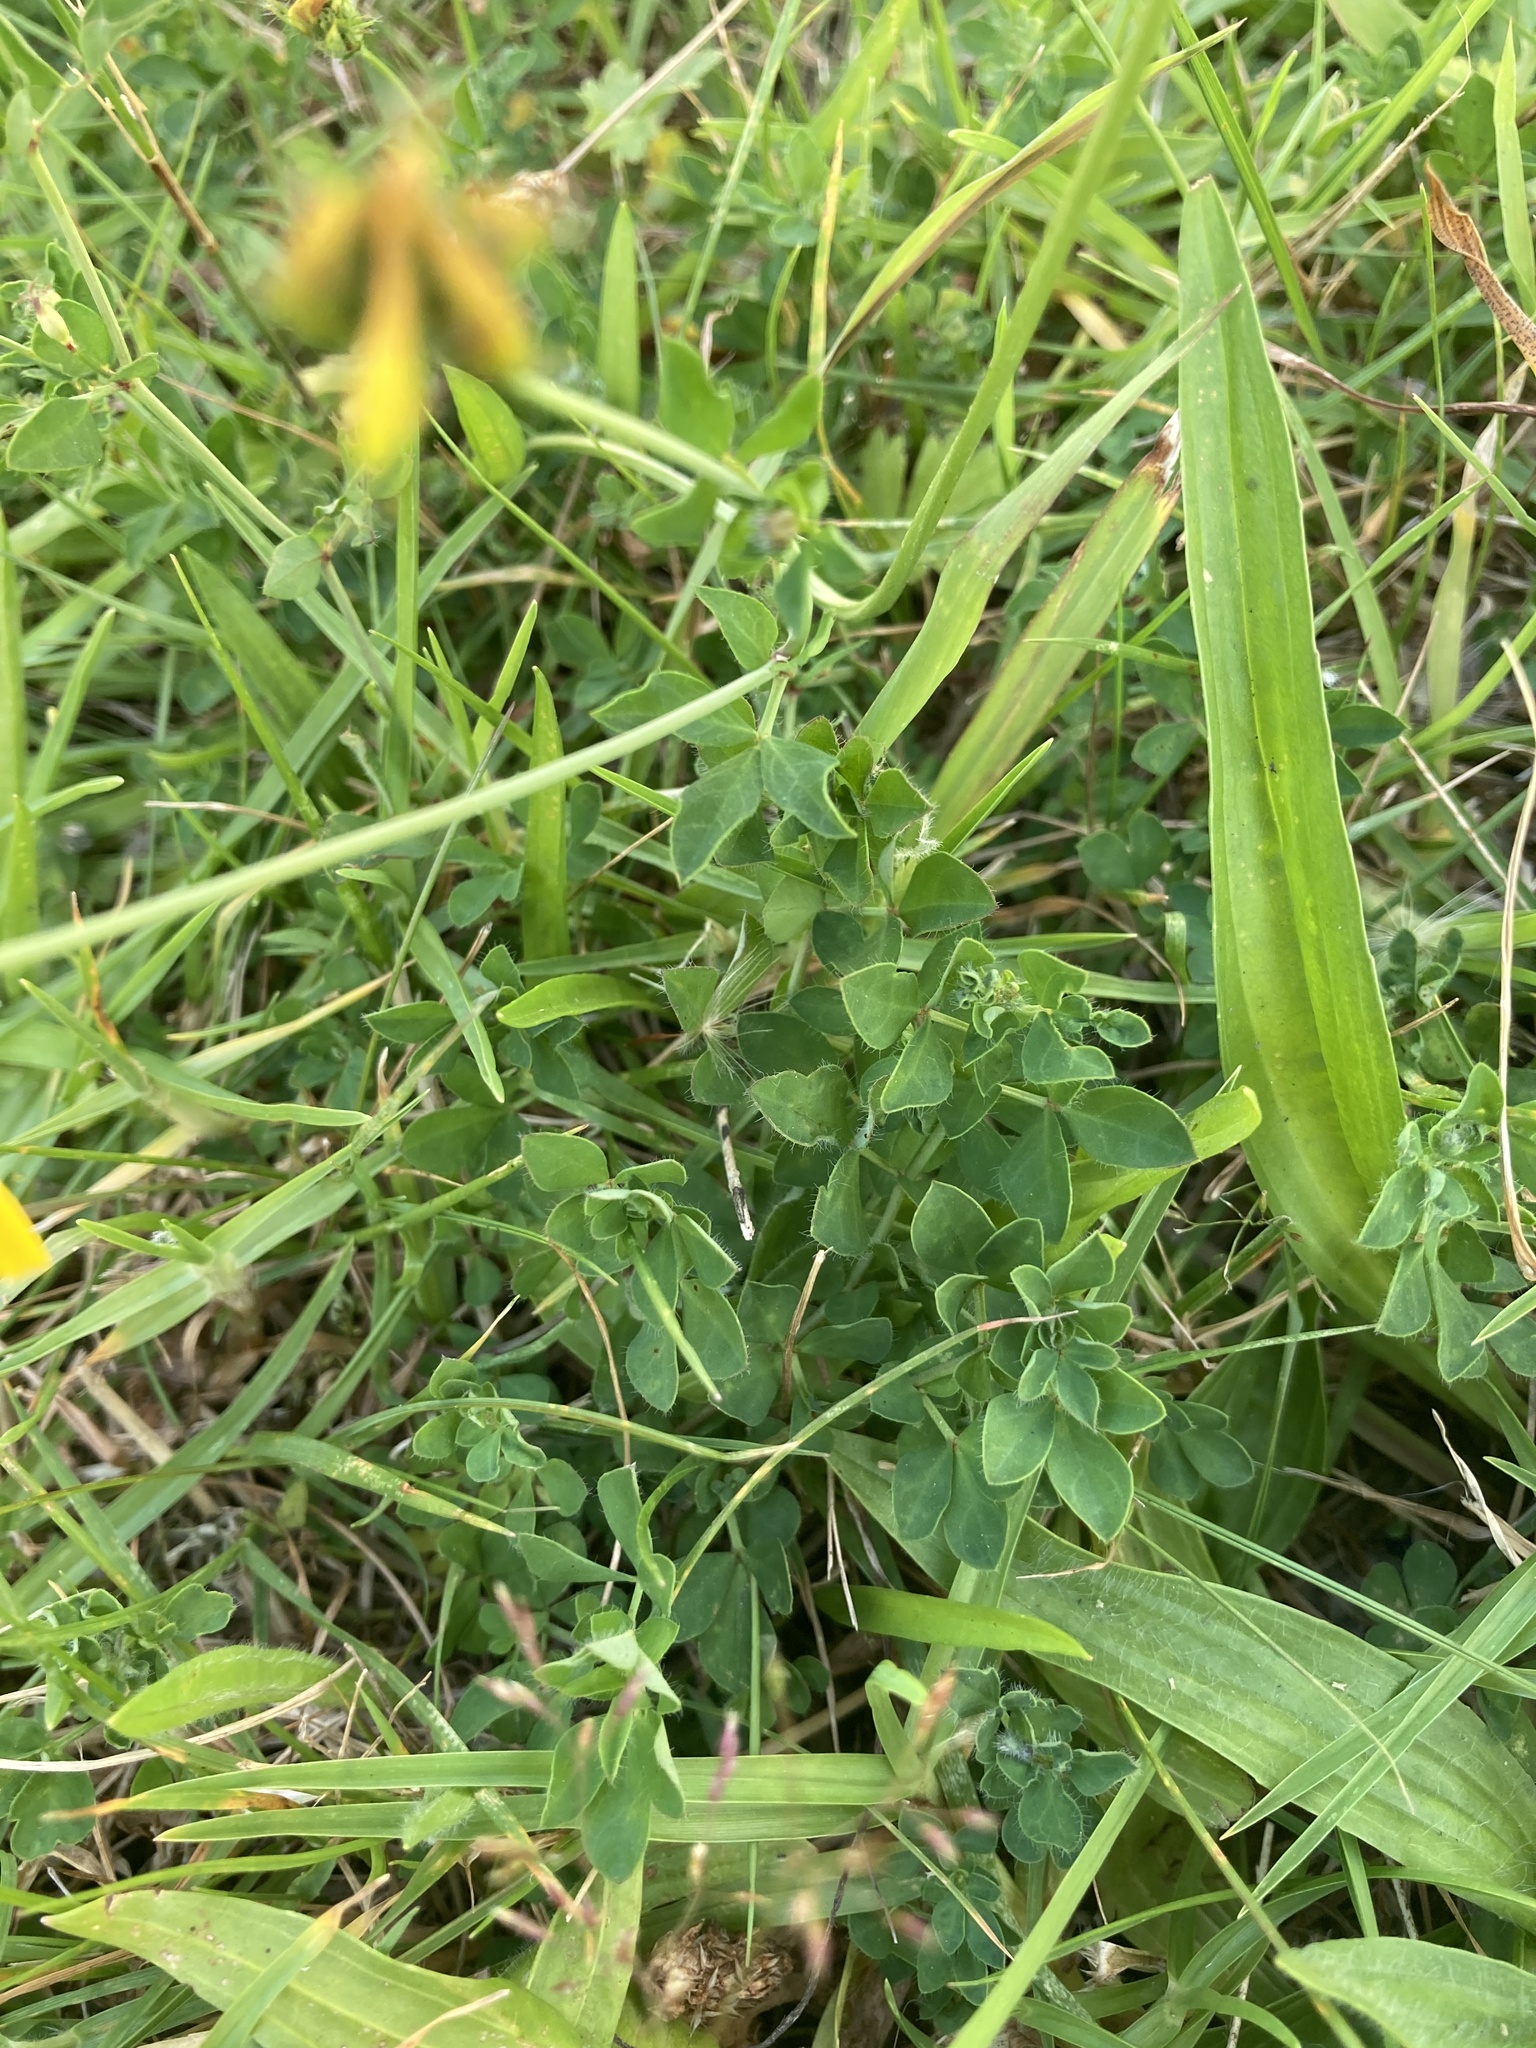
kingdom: Plantae
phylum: Tracheophyta
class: Magnoliopsida
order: Fabales
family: Fabaceae
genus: Lotus
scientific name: Lotus pedunculatus
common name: Greater birdsfoot-trefoil
